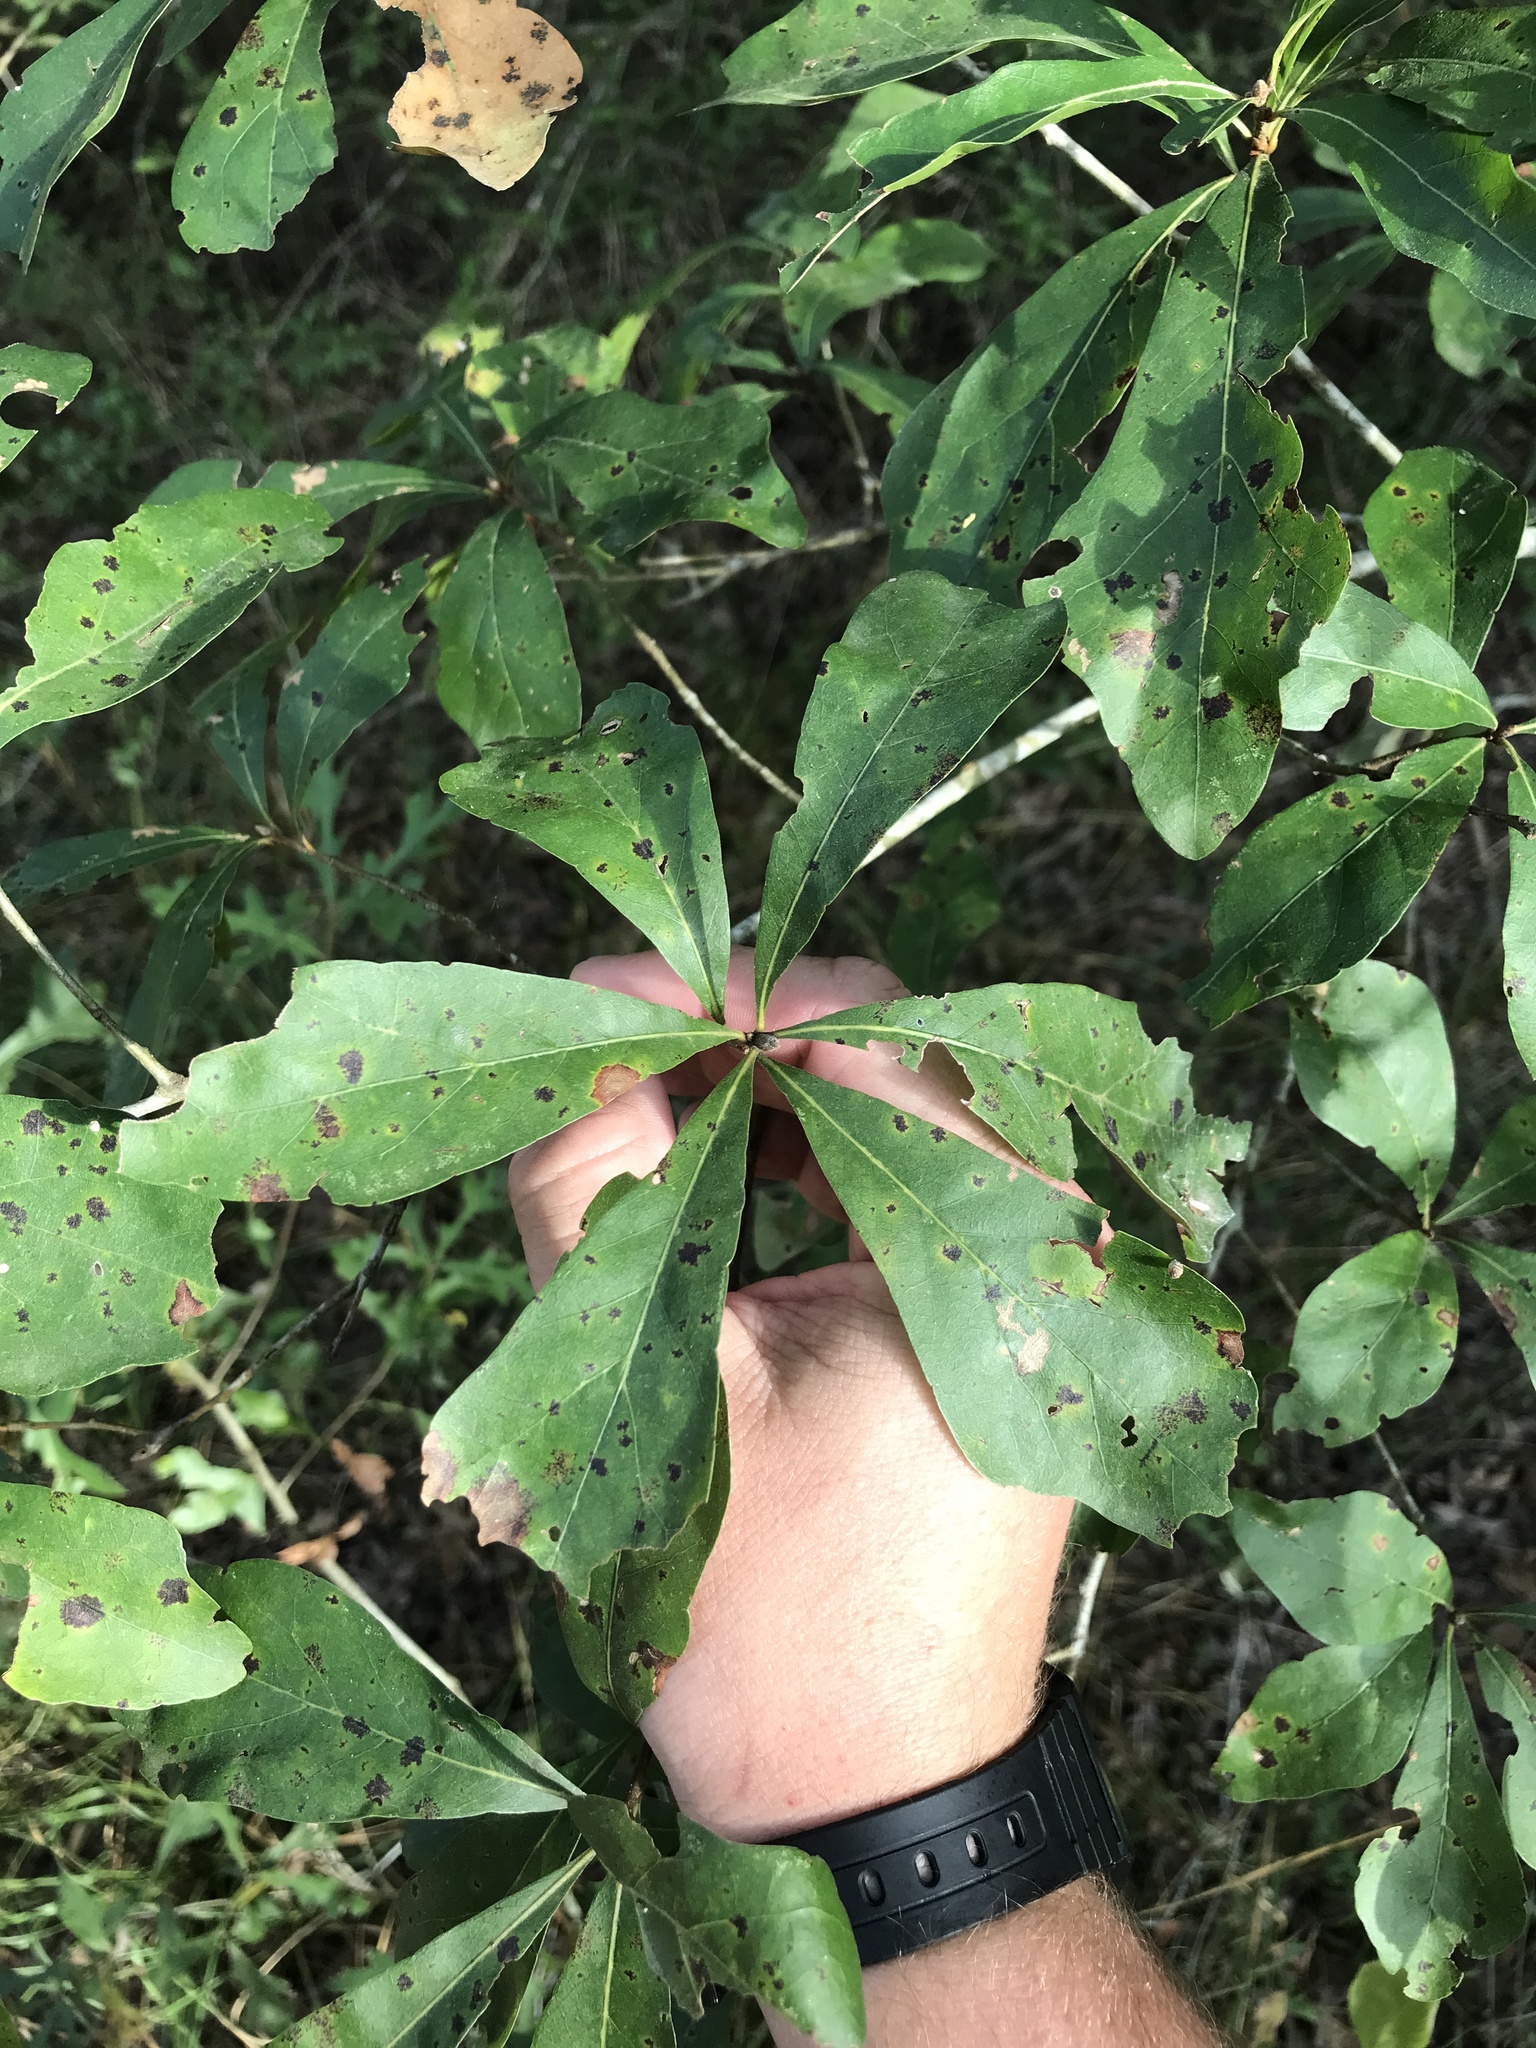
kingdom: Plantae
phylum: Tracheophyta
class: Magnoliopsida
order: Fagales
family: Fagaceae
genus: Quercus
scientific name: Quercus nigra
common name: Water oak
